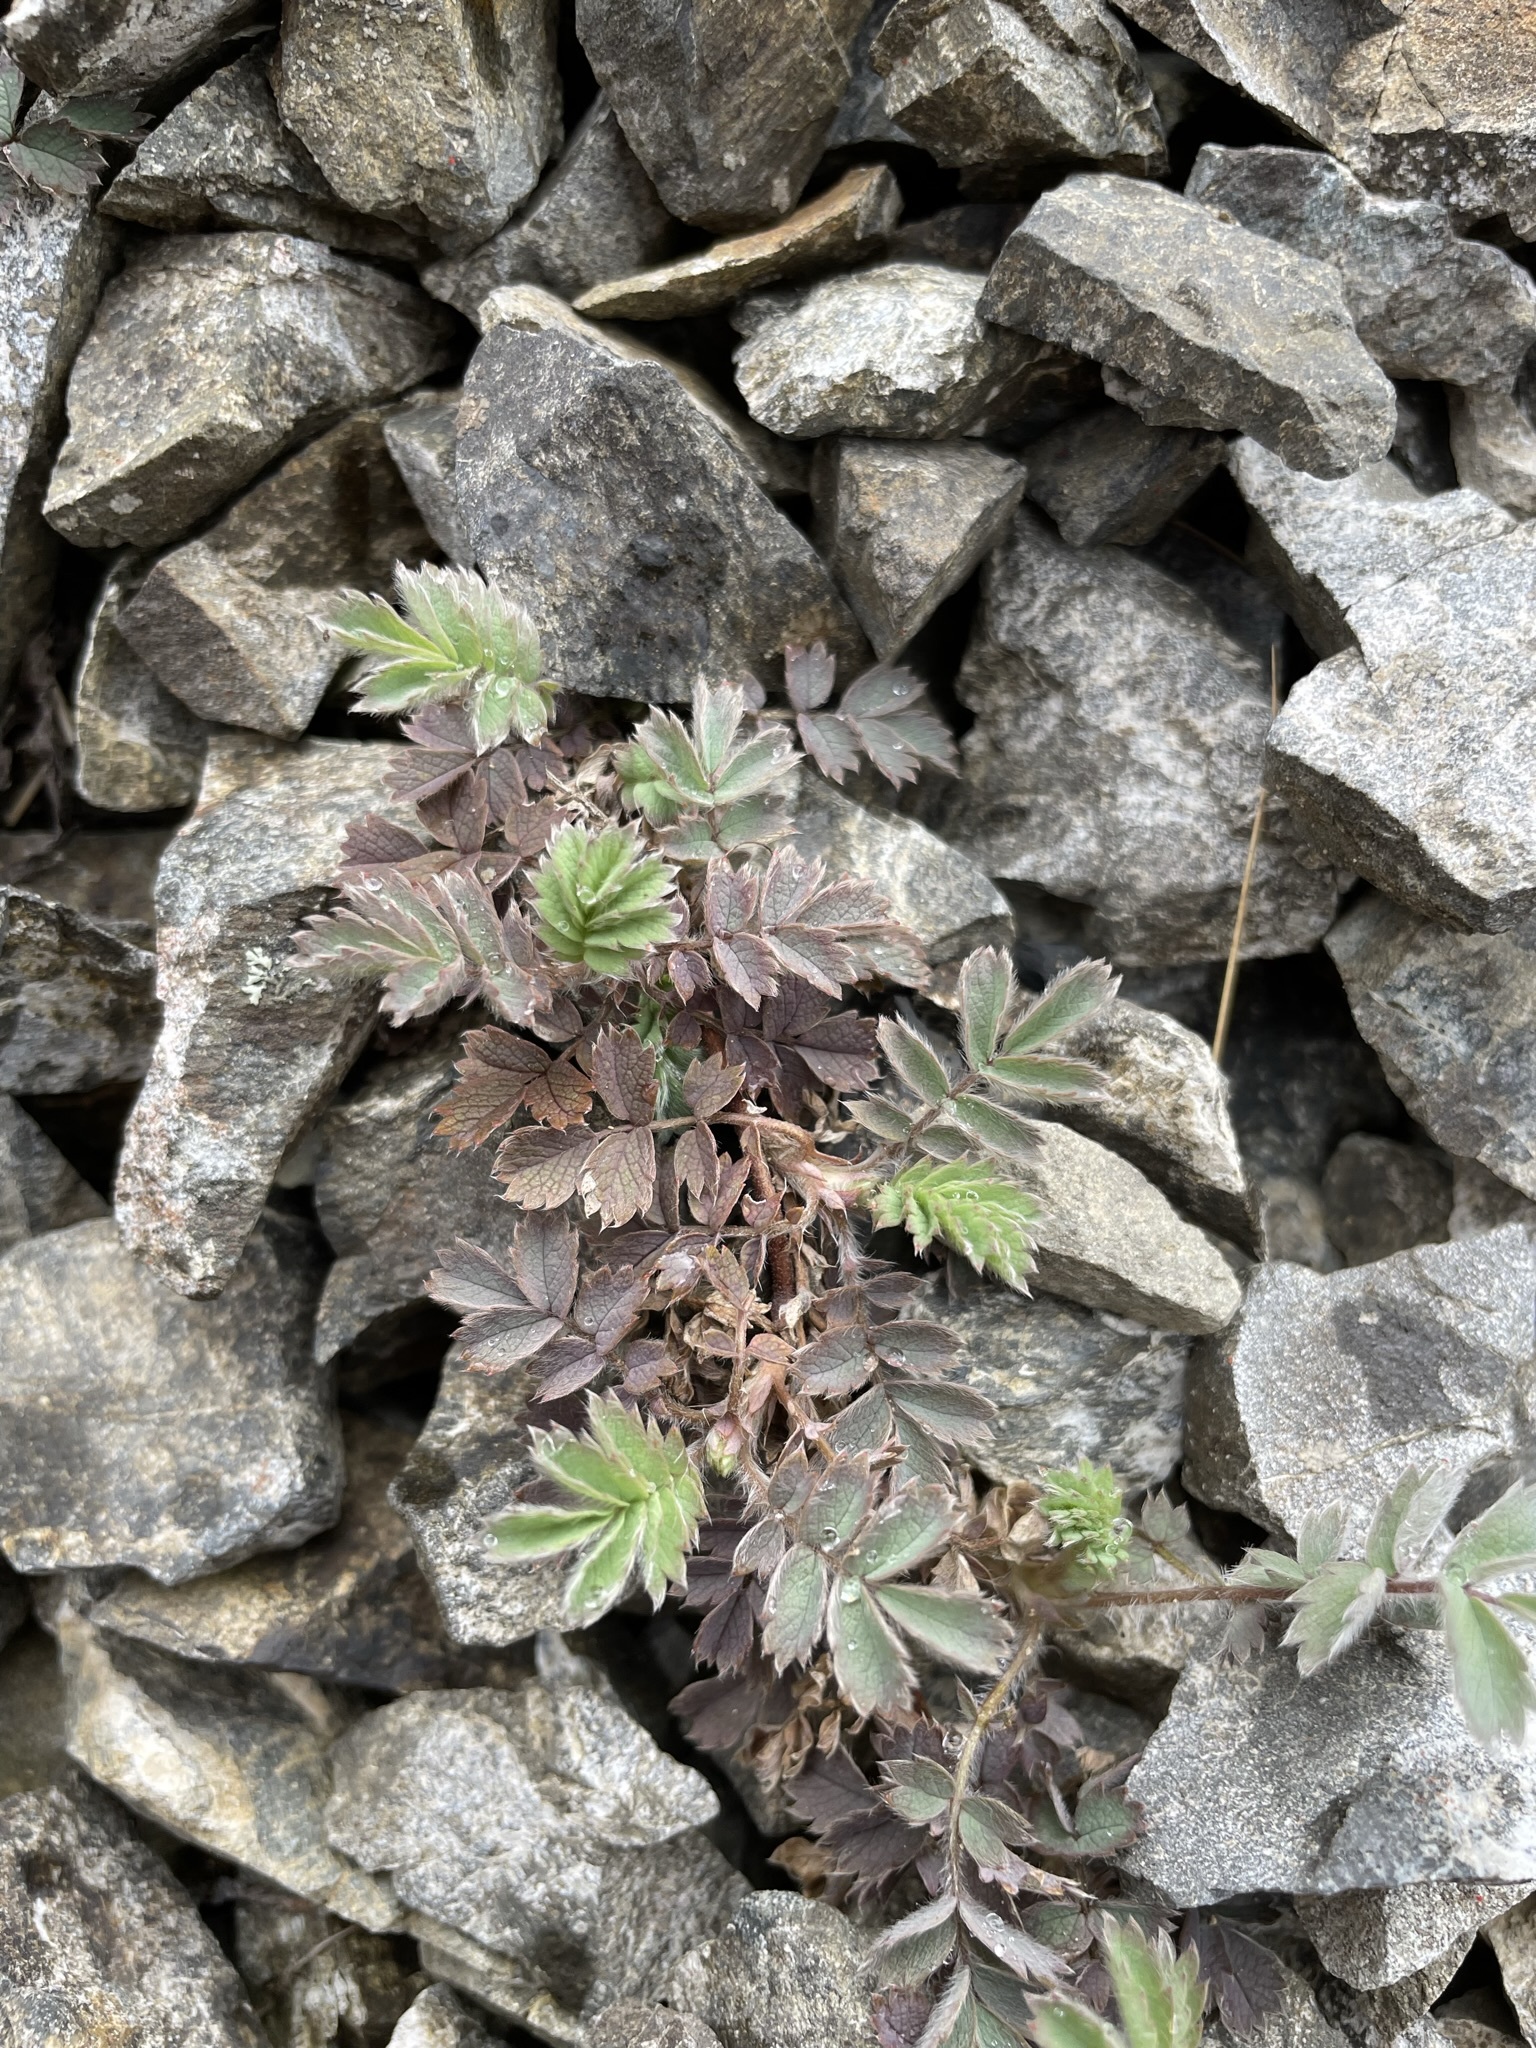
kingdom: Plantae
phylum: Tracheophyta
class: Magnoliopsida
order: Rosales
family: Rosaceae
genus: Acaena
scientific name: Acaena caesiiglauca
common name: Glaucous pirri-pirri-bur
